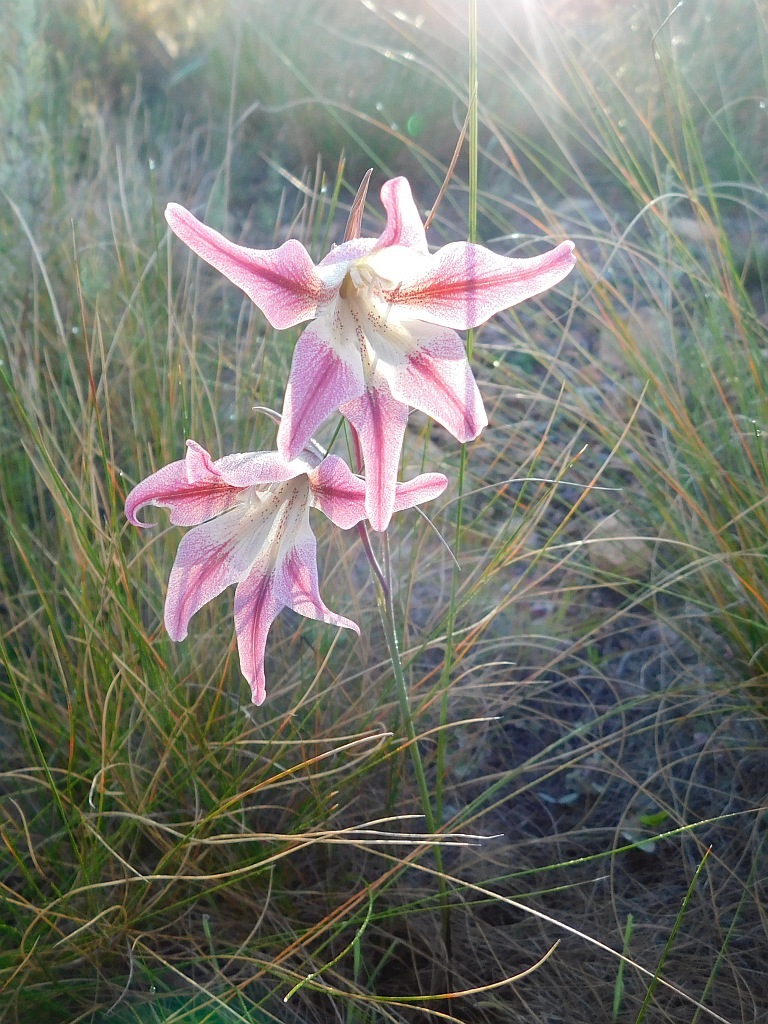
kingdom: Plantae
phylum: Tracheophyta
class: Liliopsida
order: Asparagales
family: Iridaceae
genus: Gladiolus
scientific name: Gladiolus liliaceus
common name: Large brown afrikaner
